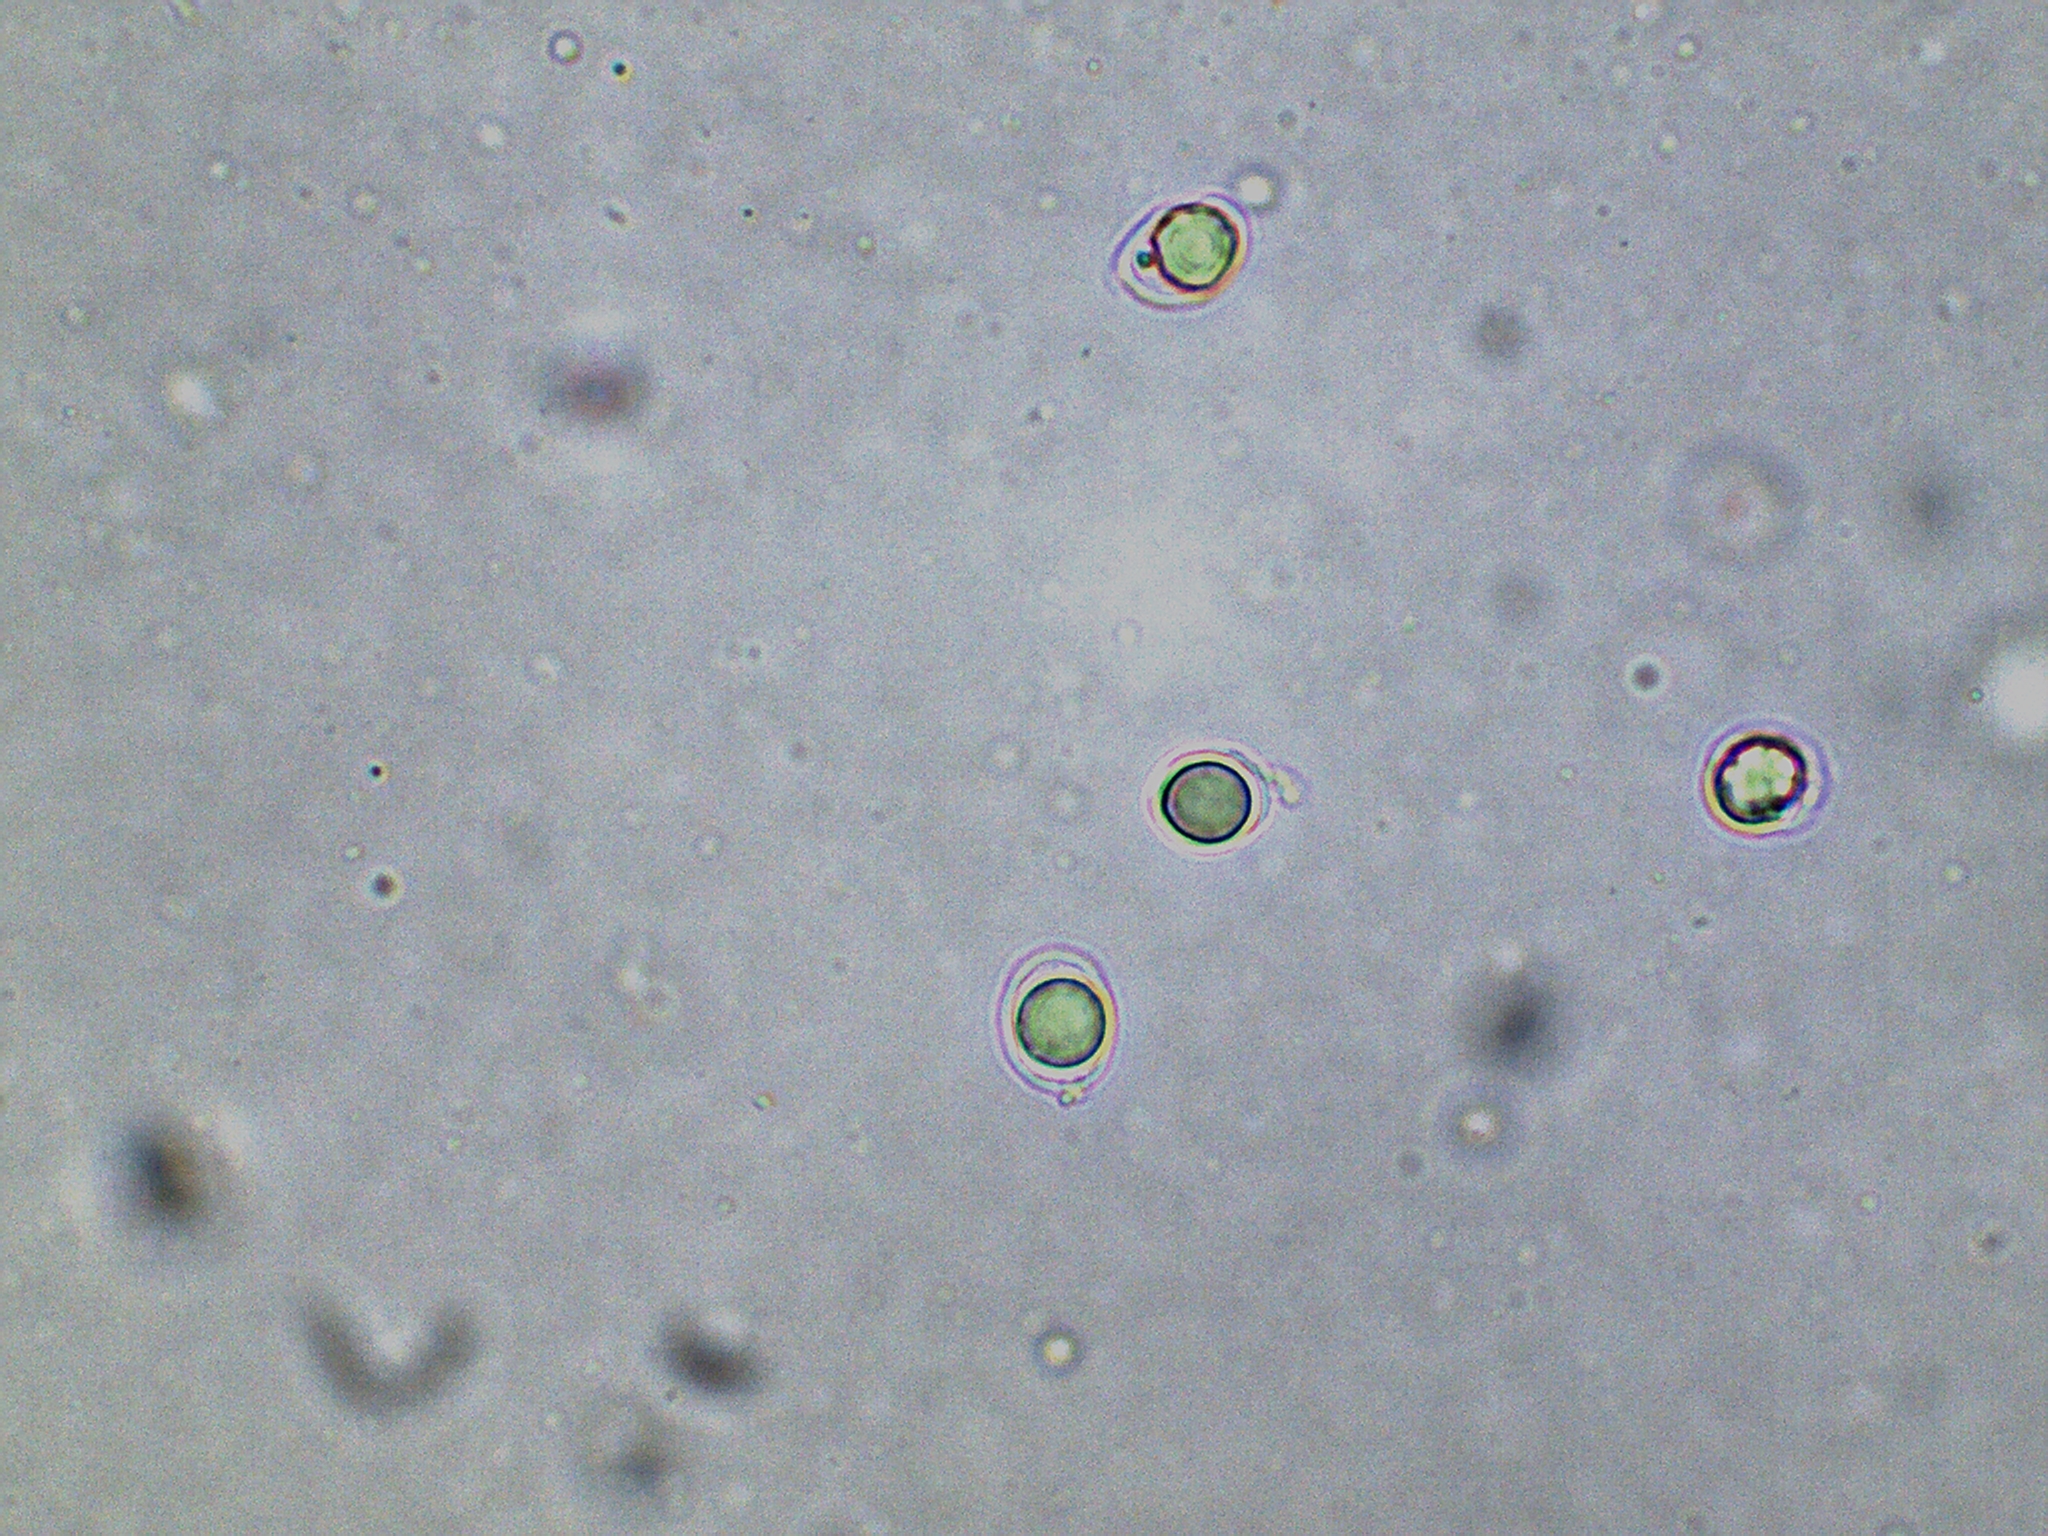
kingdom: Fungi
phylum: Basidiomycota
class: Agaricomycetes
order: Agaricales
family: Mycenaceae
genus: Mycena
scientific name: Mycena galericulata
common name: Bonnet mycena
